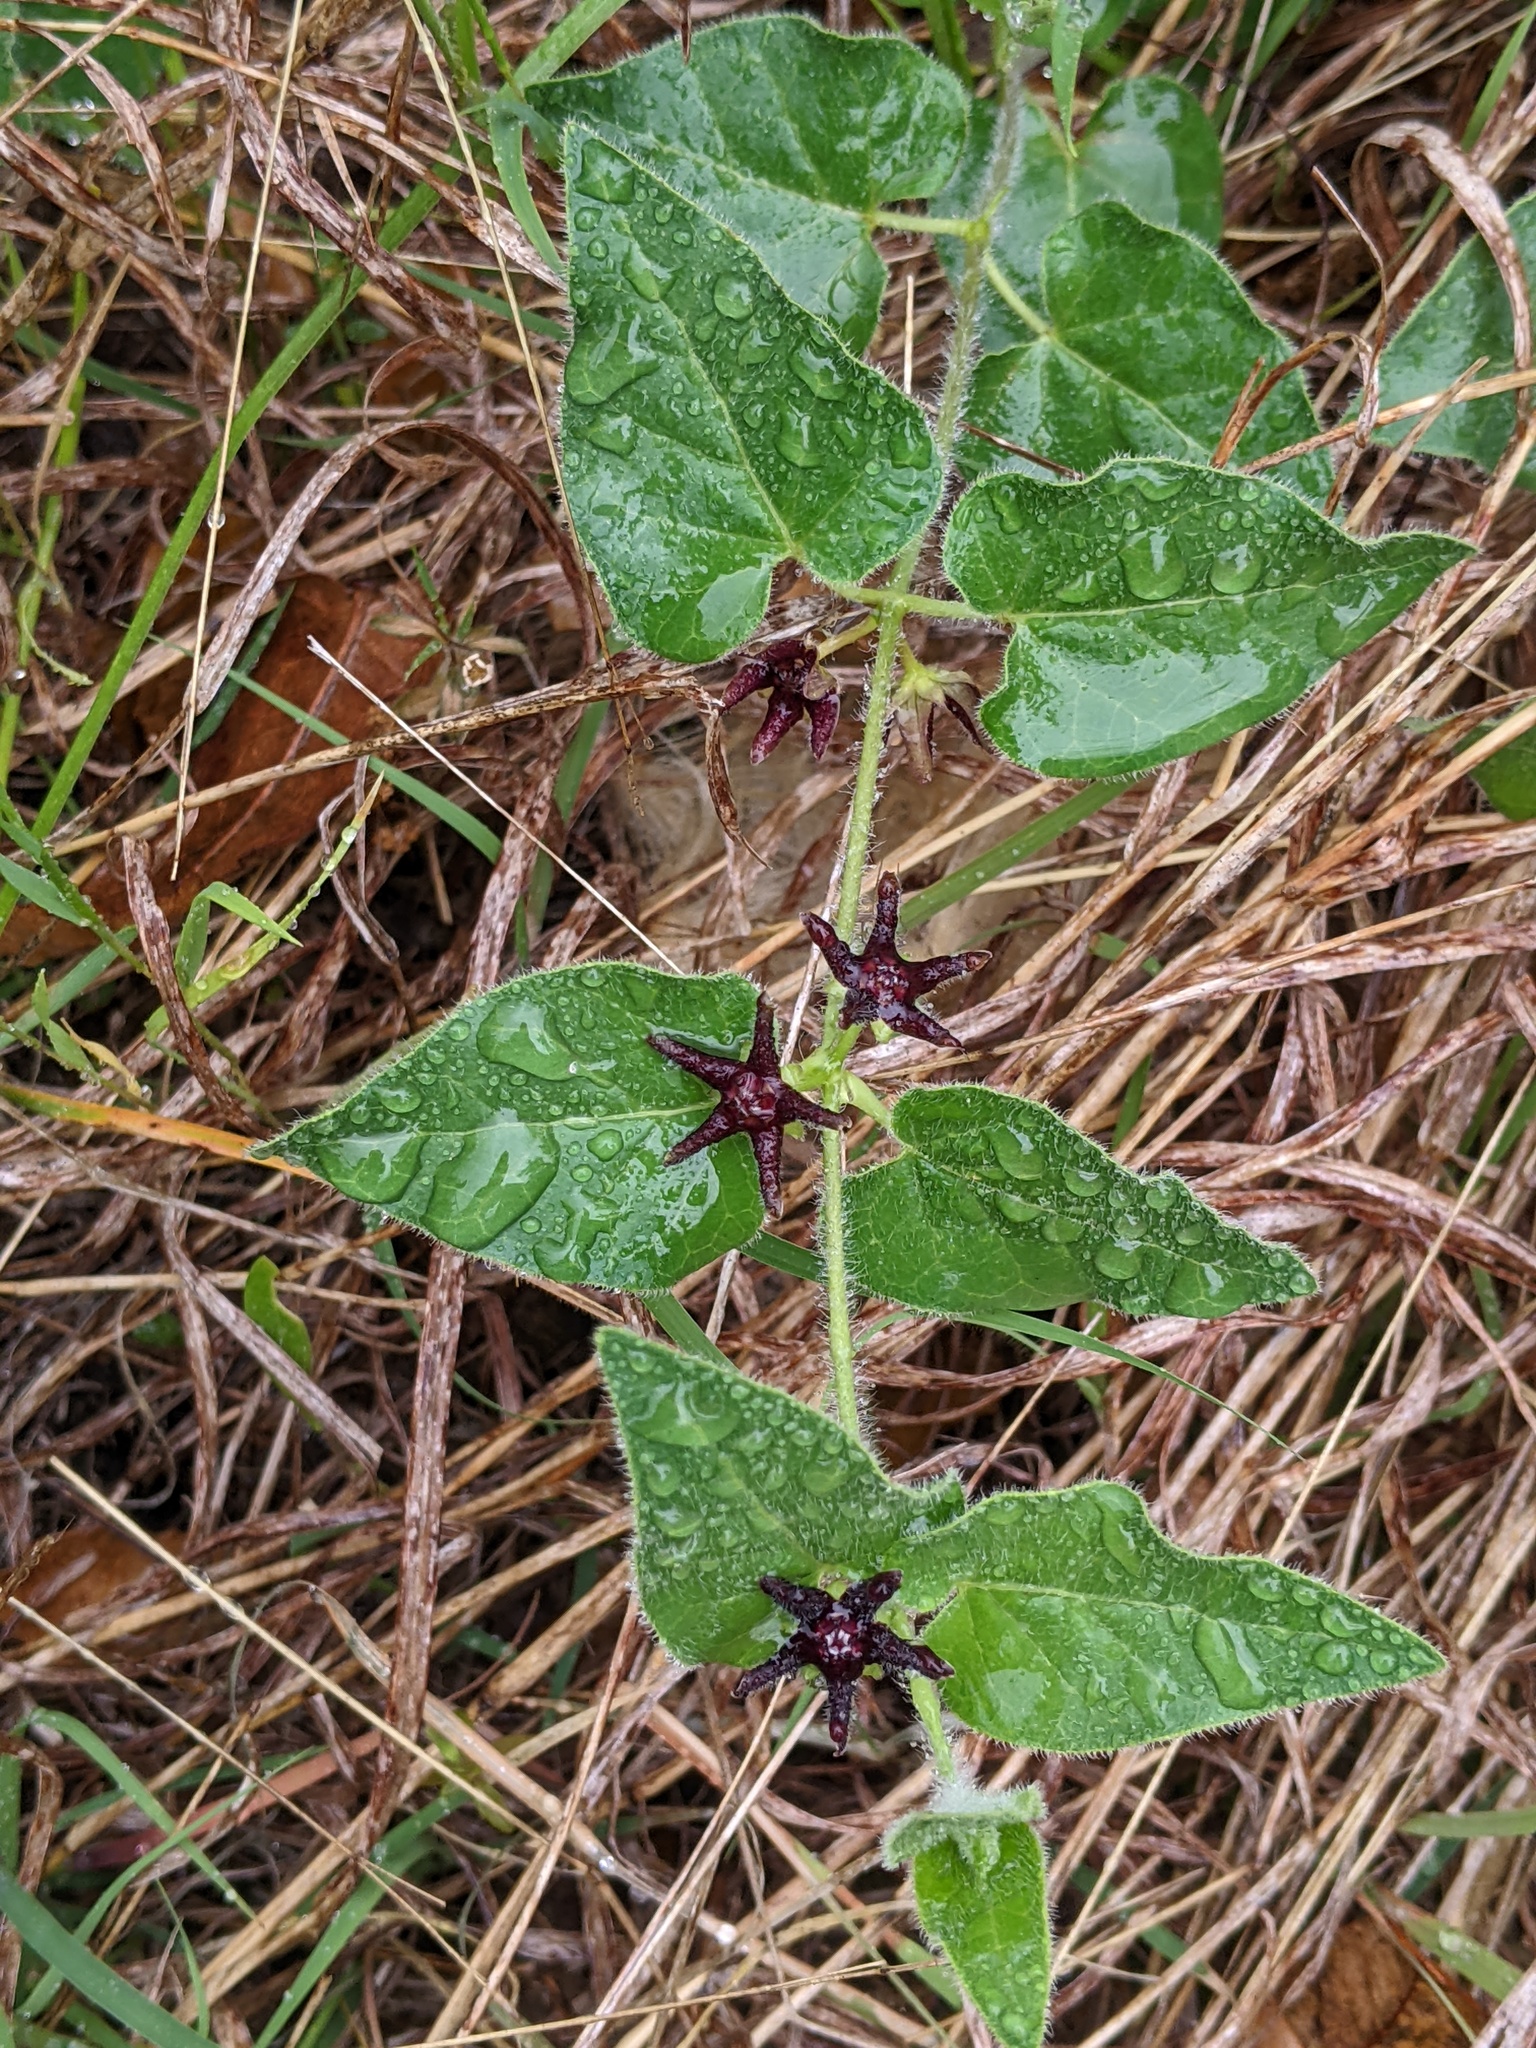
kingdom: Plantae
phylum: Tracheophyta
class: Magnoliopsida
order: Gentianales
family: Apocynaceae
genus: Chthamalia
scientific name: Chthamalia biflora
